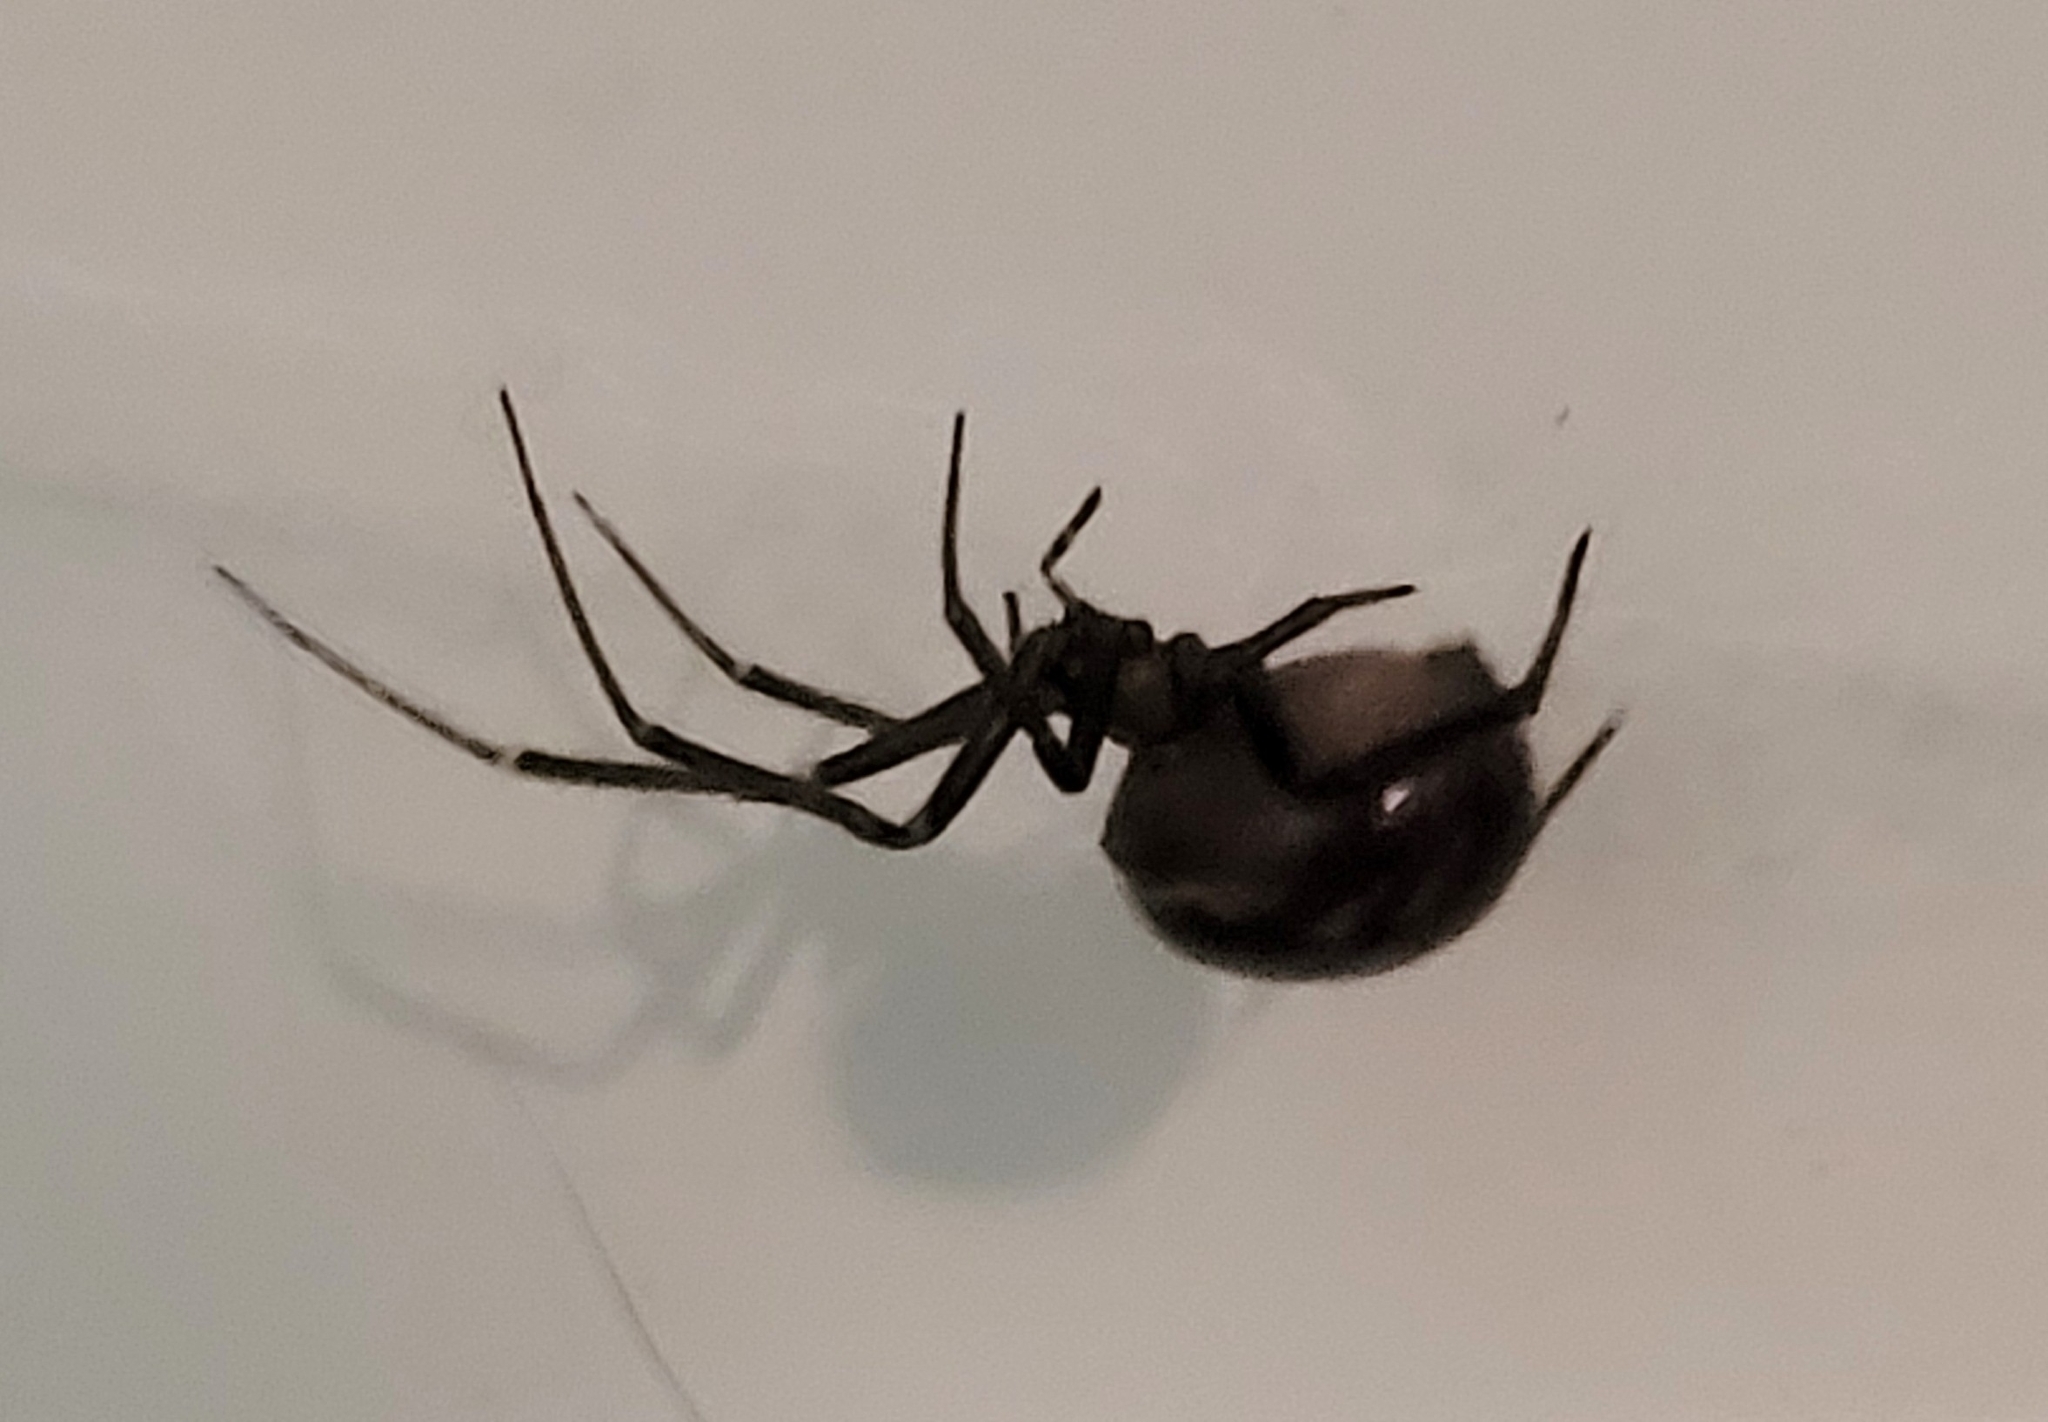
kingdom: Animalia
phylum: Arthropoda
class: Arachnida
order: Araneae
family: Theridiidae
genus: Steatoda
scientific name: Steatoda grossa
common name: False black widow
